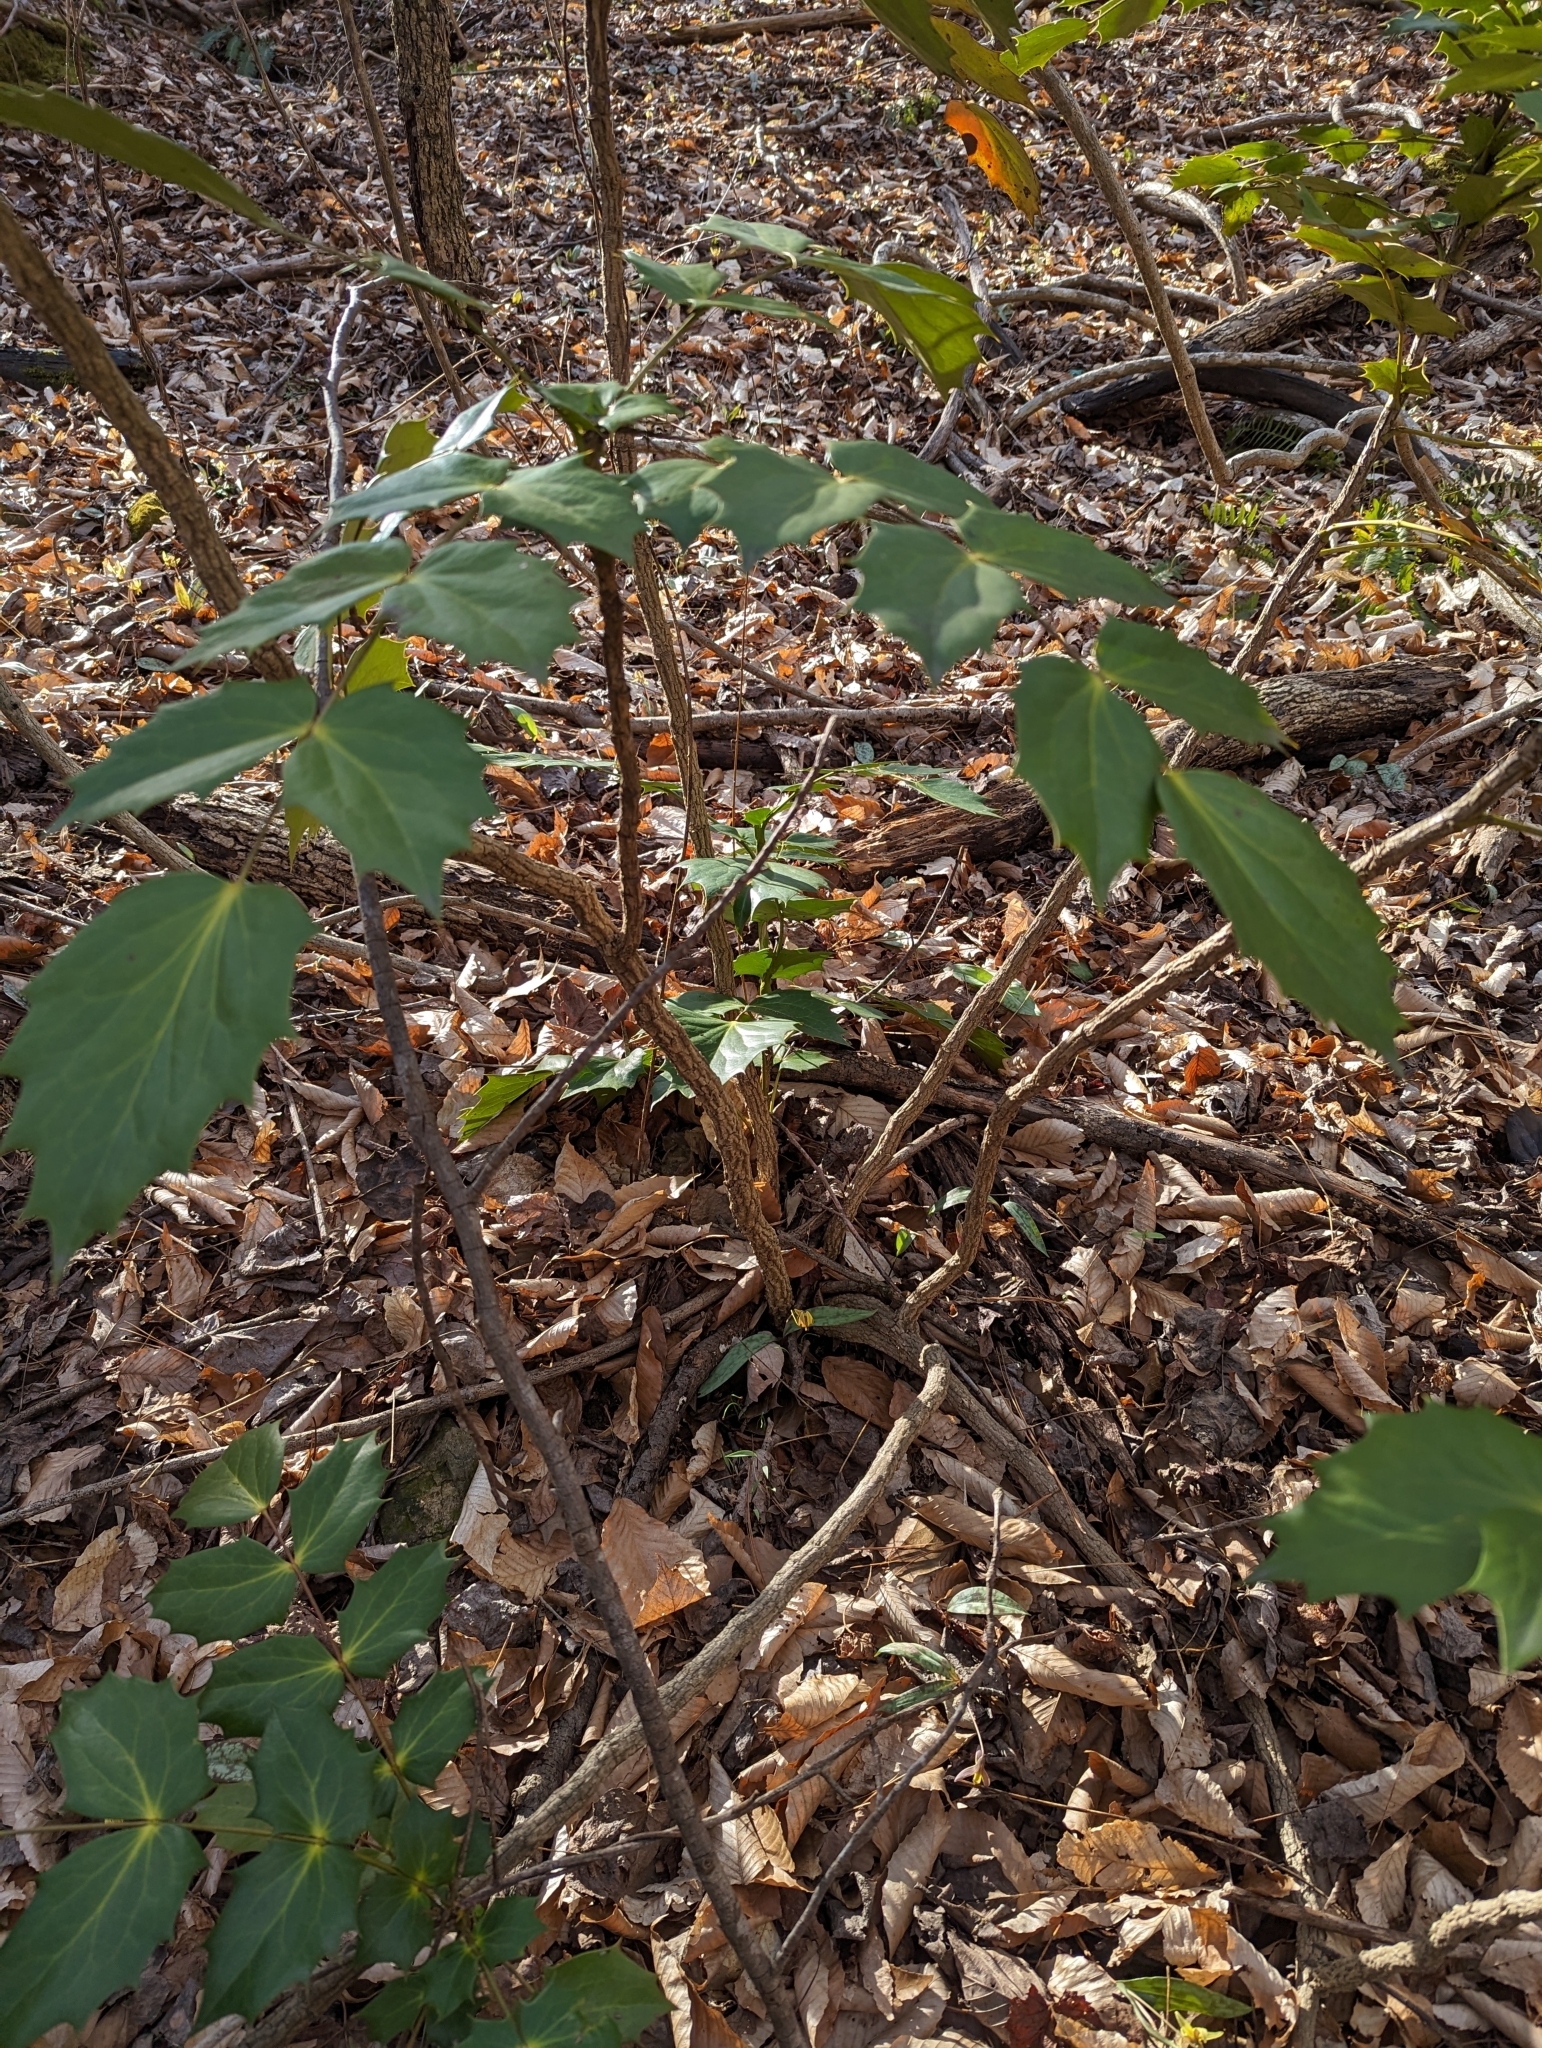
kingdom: Plantae
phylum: Tracheophyta
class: Magnoliopsida
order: Ranunculales
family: Berberidaceae
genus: Mahonia
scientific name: Mahonia bealei
